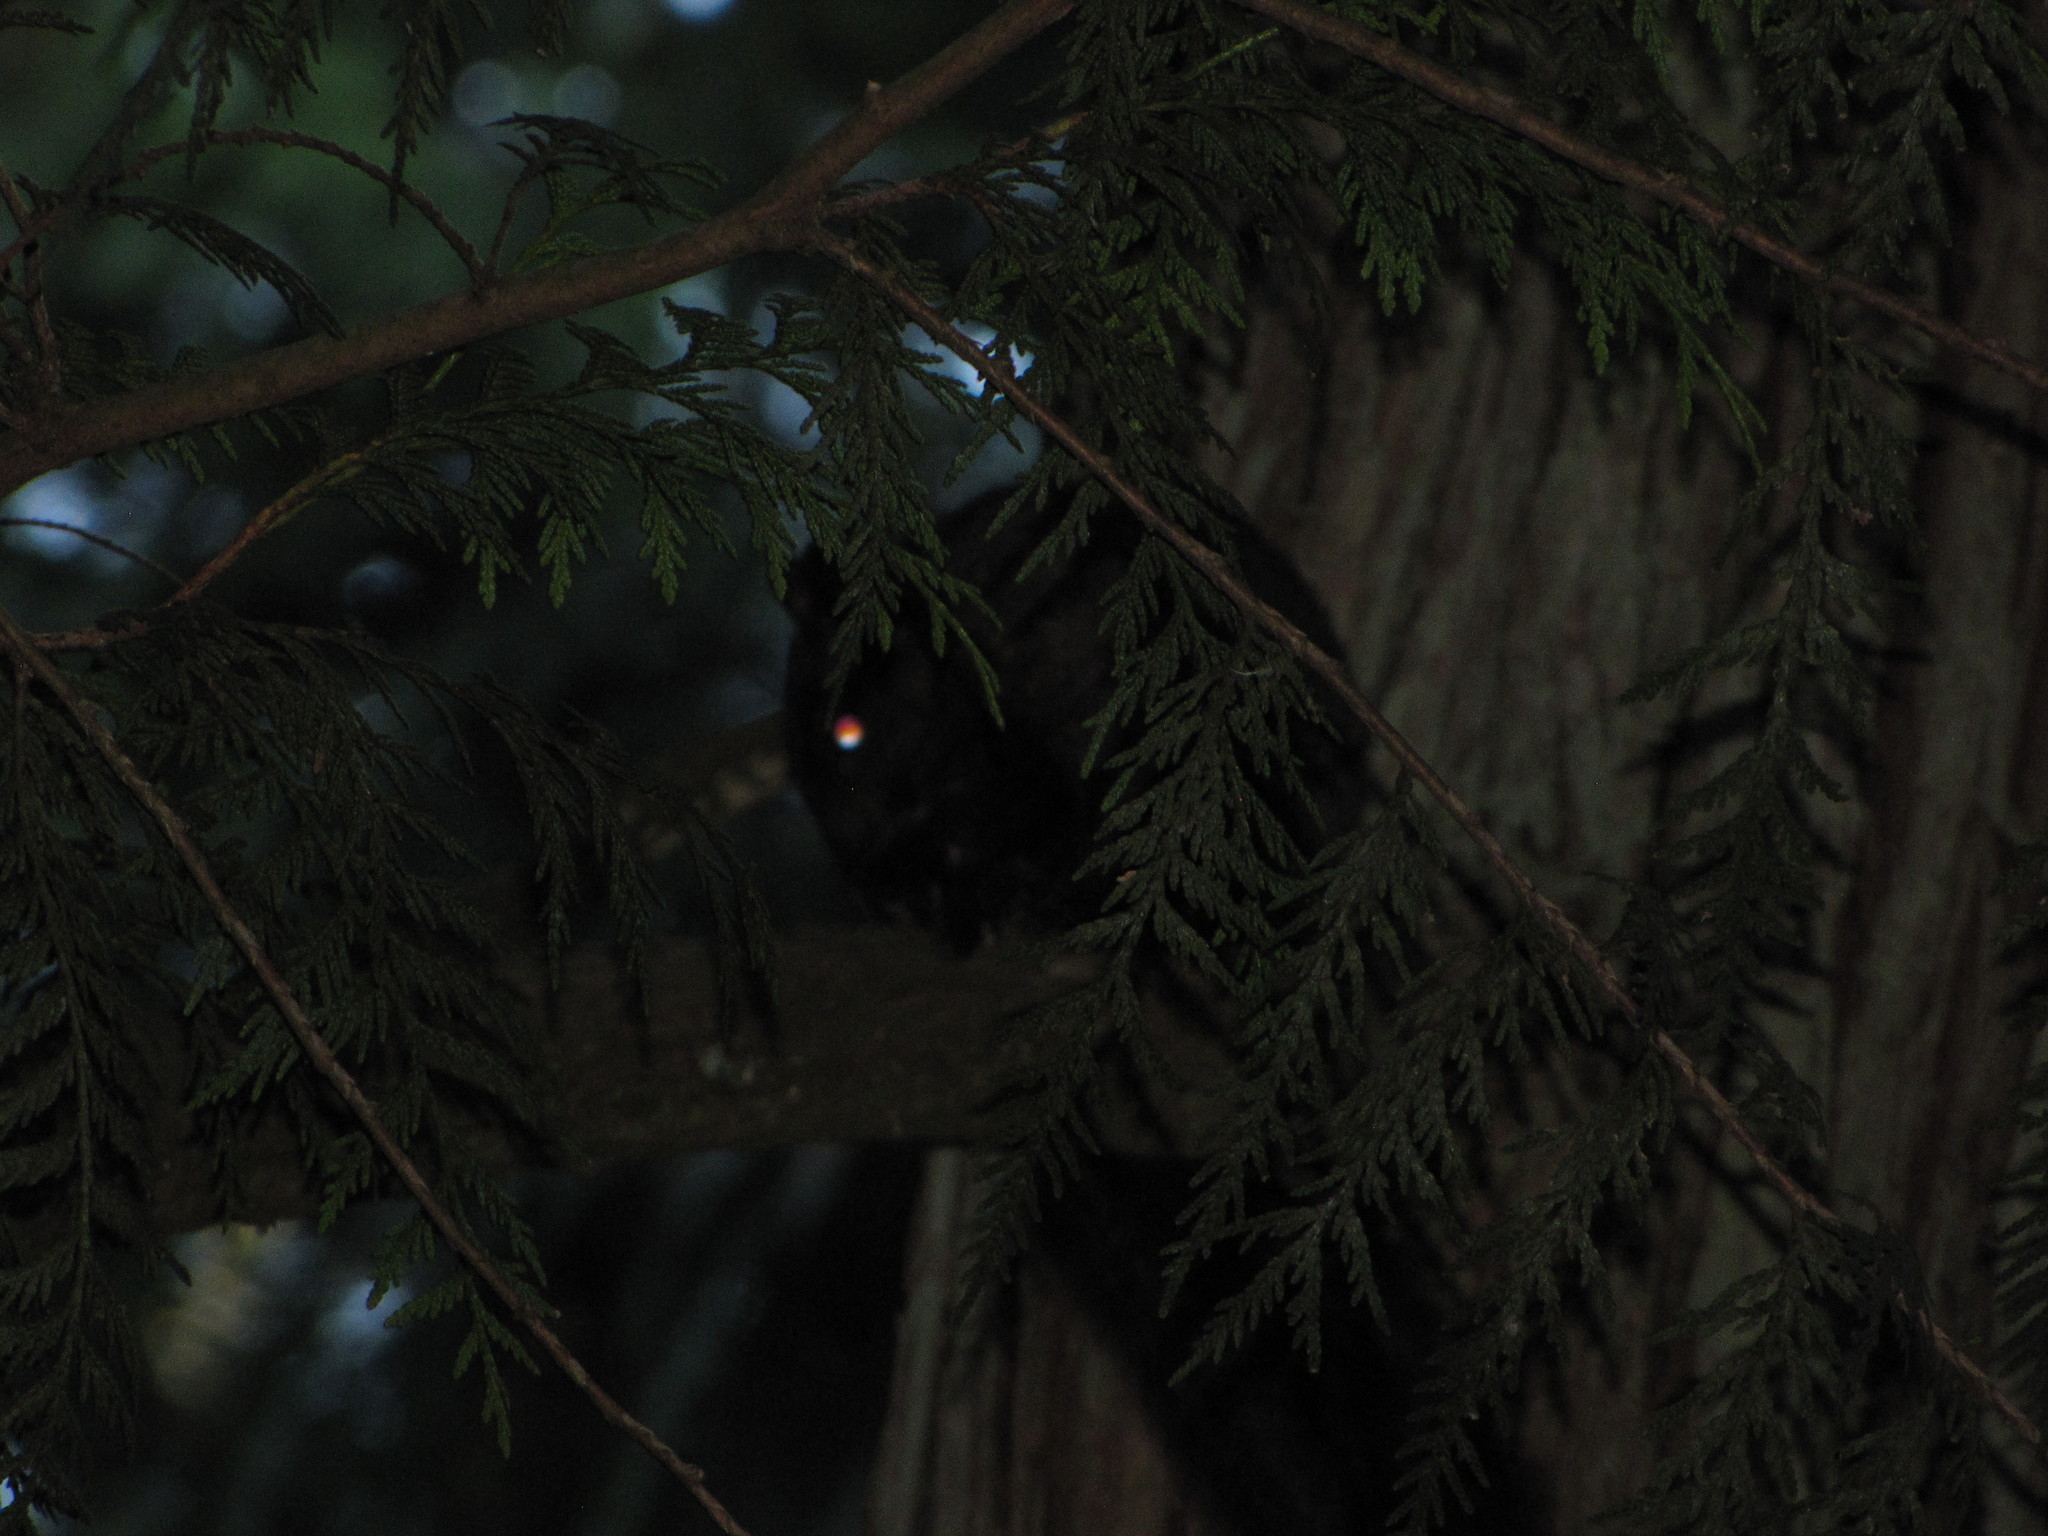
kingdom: Animalia
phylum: Chordata
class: Mammalia
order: Rodentia
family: Sciuridae
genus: Sciurus
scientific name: Sciurus carolinensis
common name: Eastern gray squirrel
